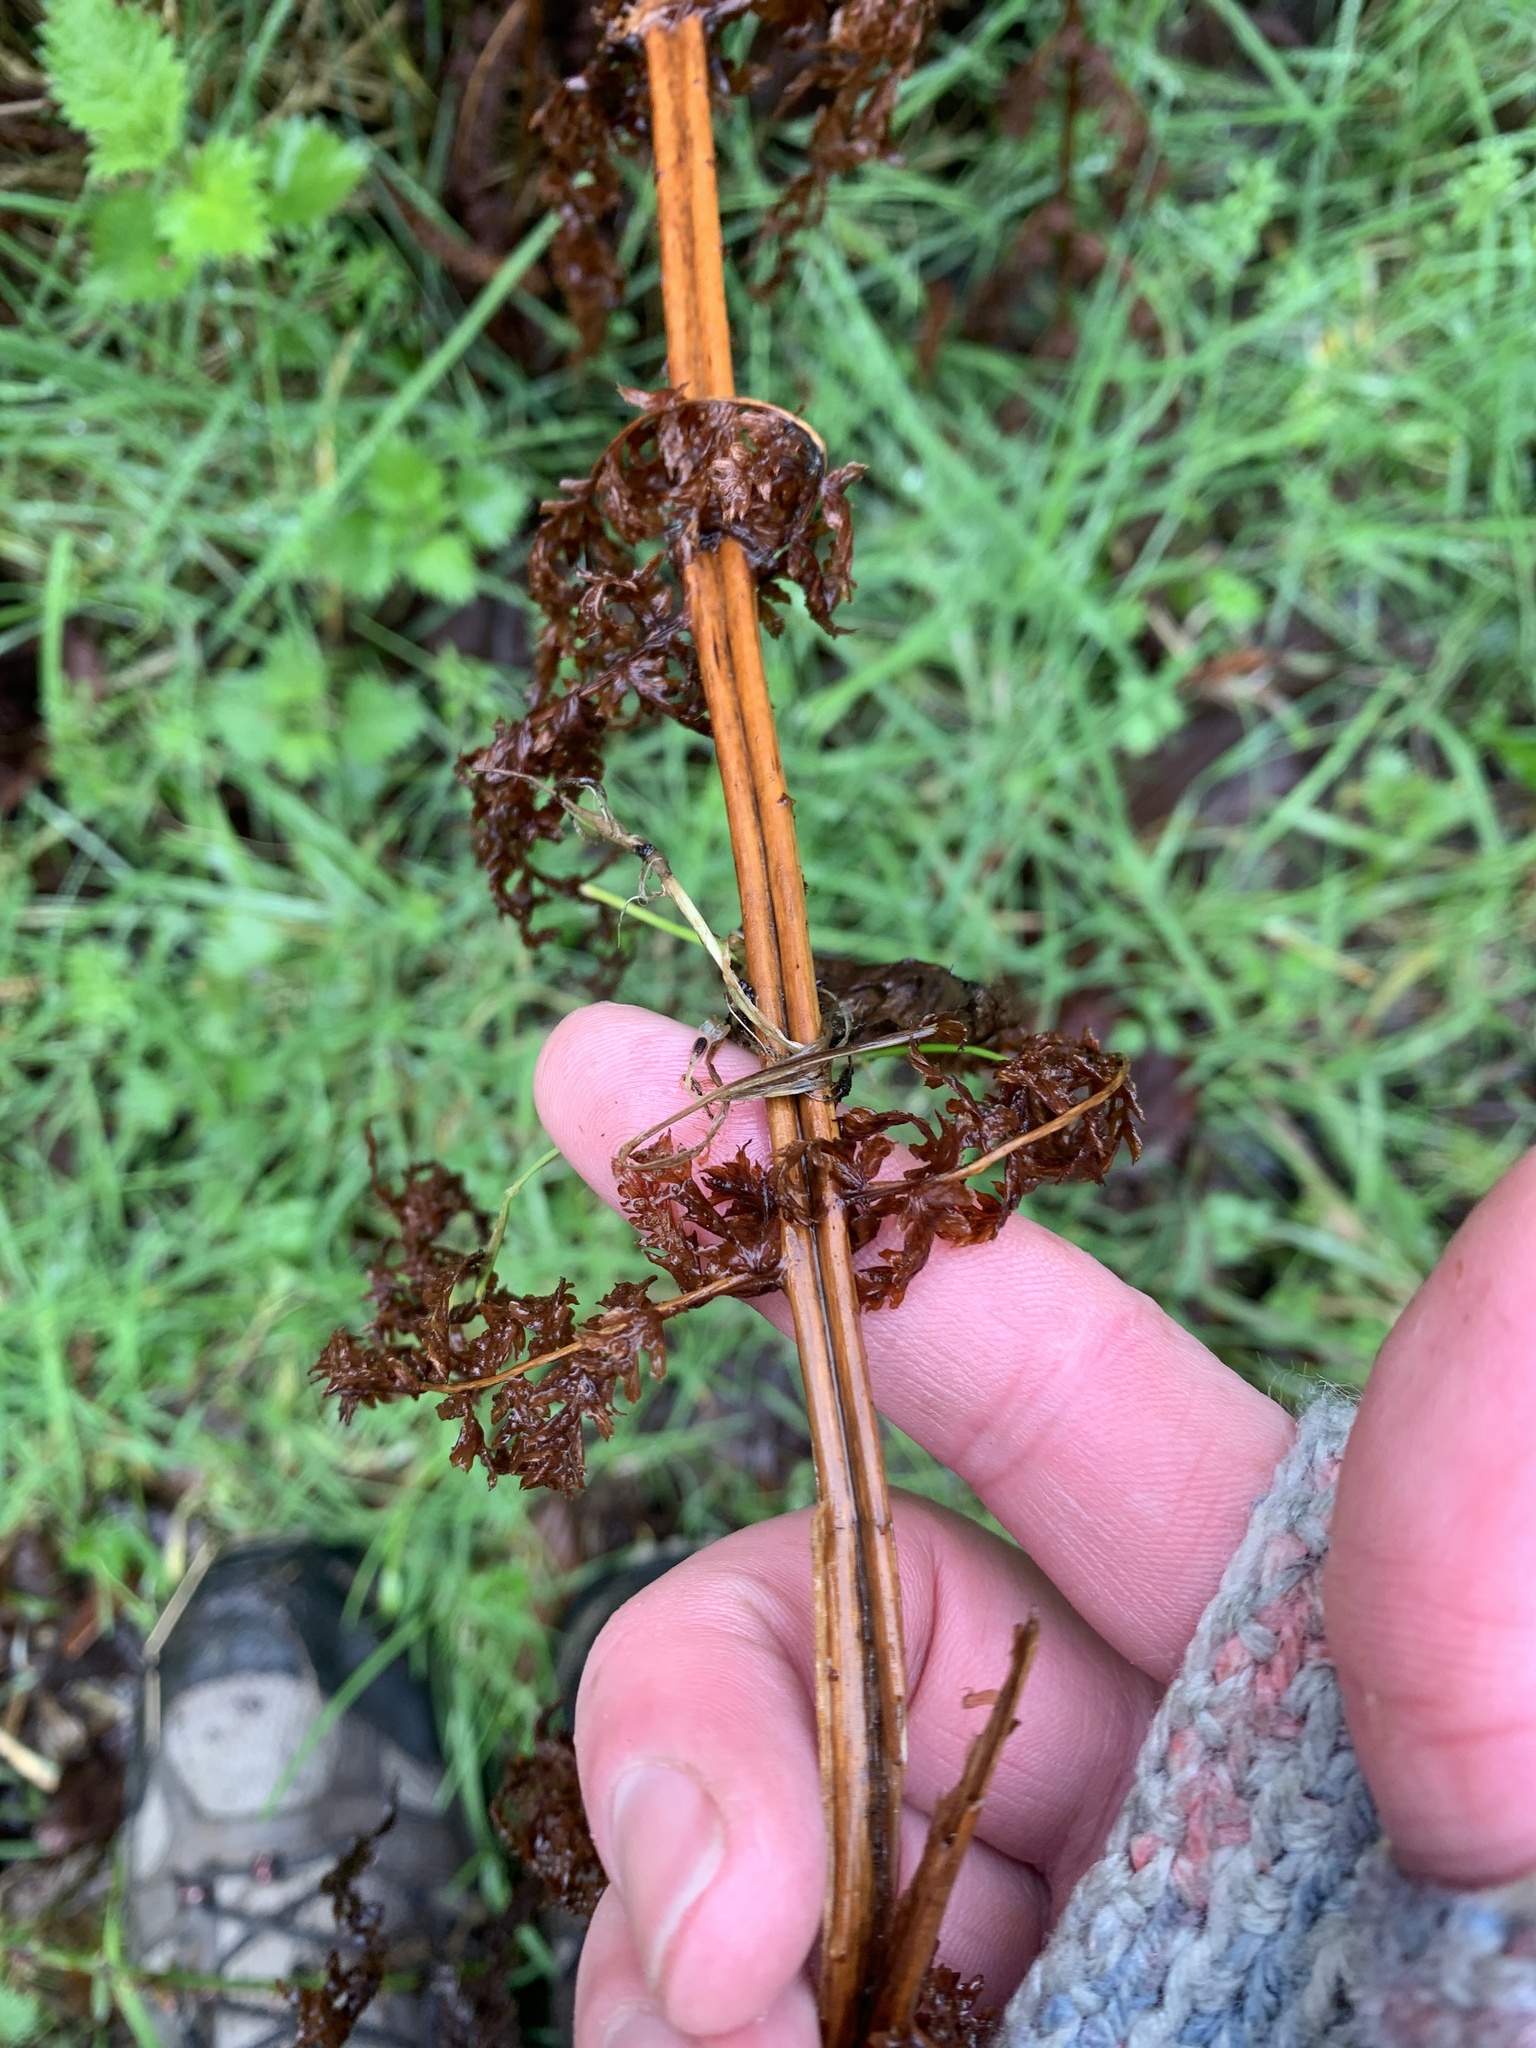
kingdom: Plantae
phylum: Tracheophyta
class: Polypodiopsida
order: Polypodiales
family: Athyriaceae
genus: Athyrium
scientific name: Athyrium filix-femina
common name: Lady fern
